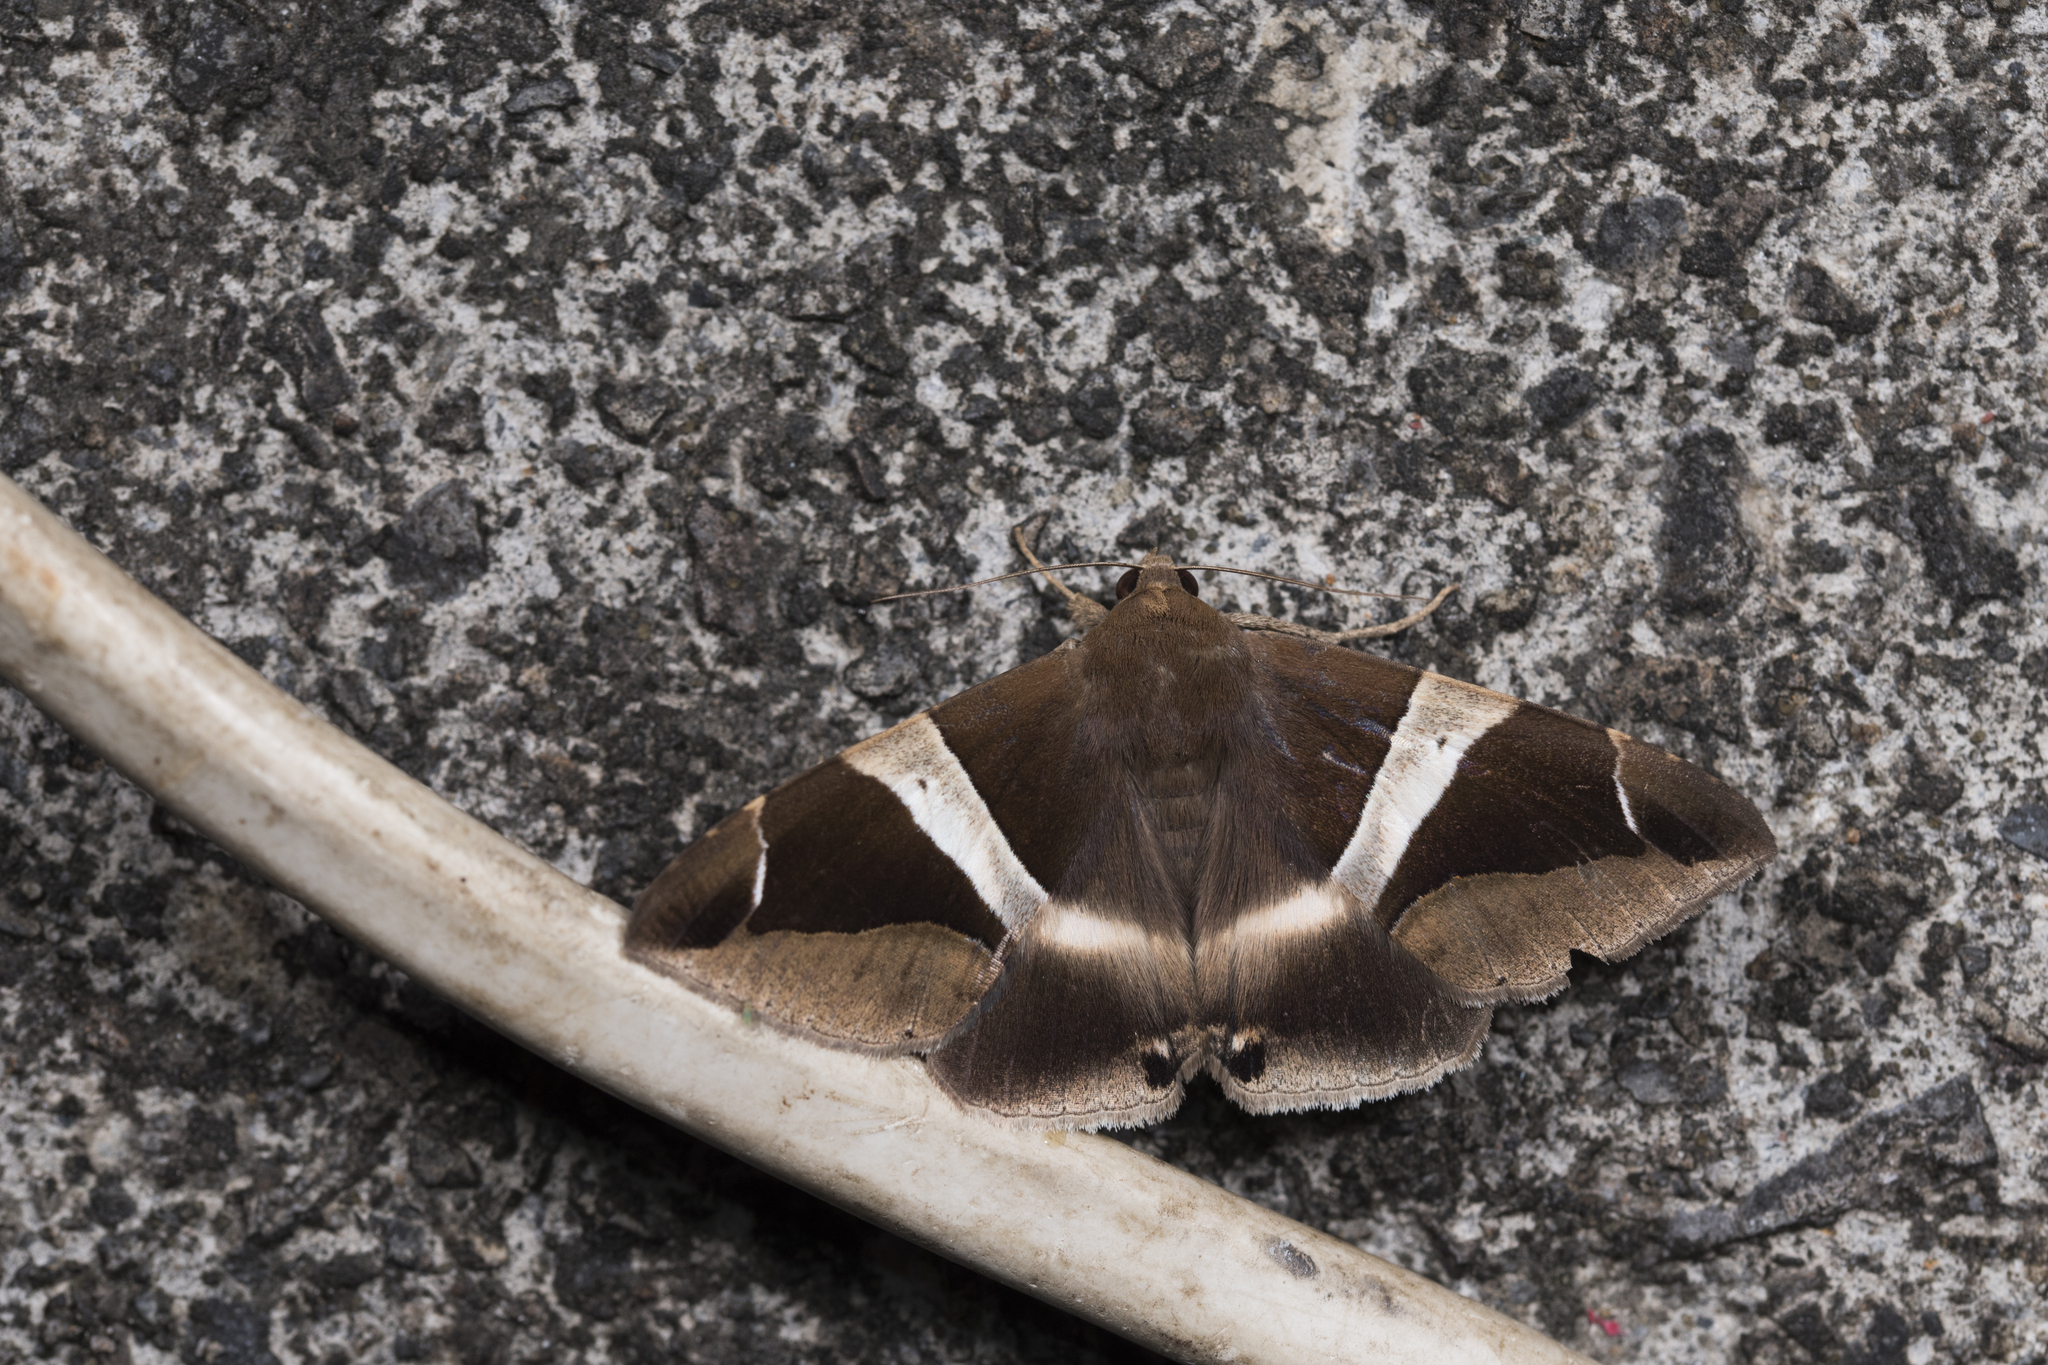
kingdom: Animalia
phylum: Arthropoda
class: Insecta
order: Lepidoptera
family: Erebidae
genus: Dysgonia
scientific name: Dysgonia praetermissa
